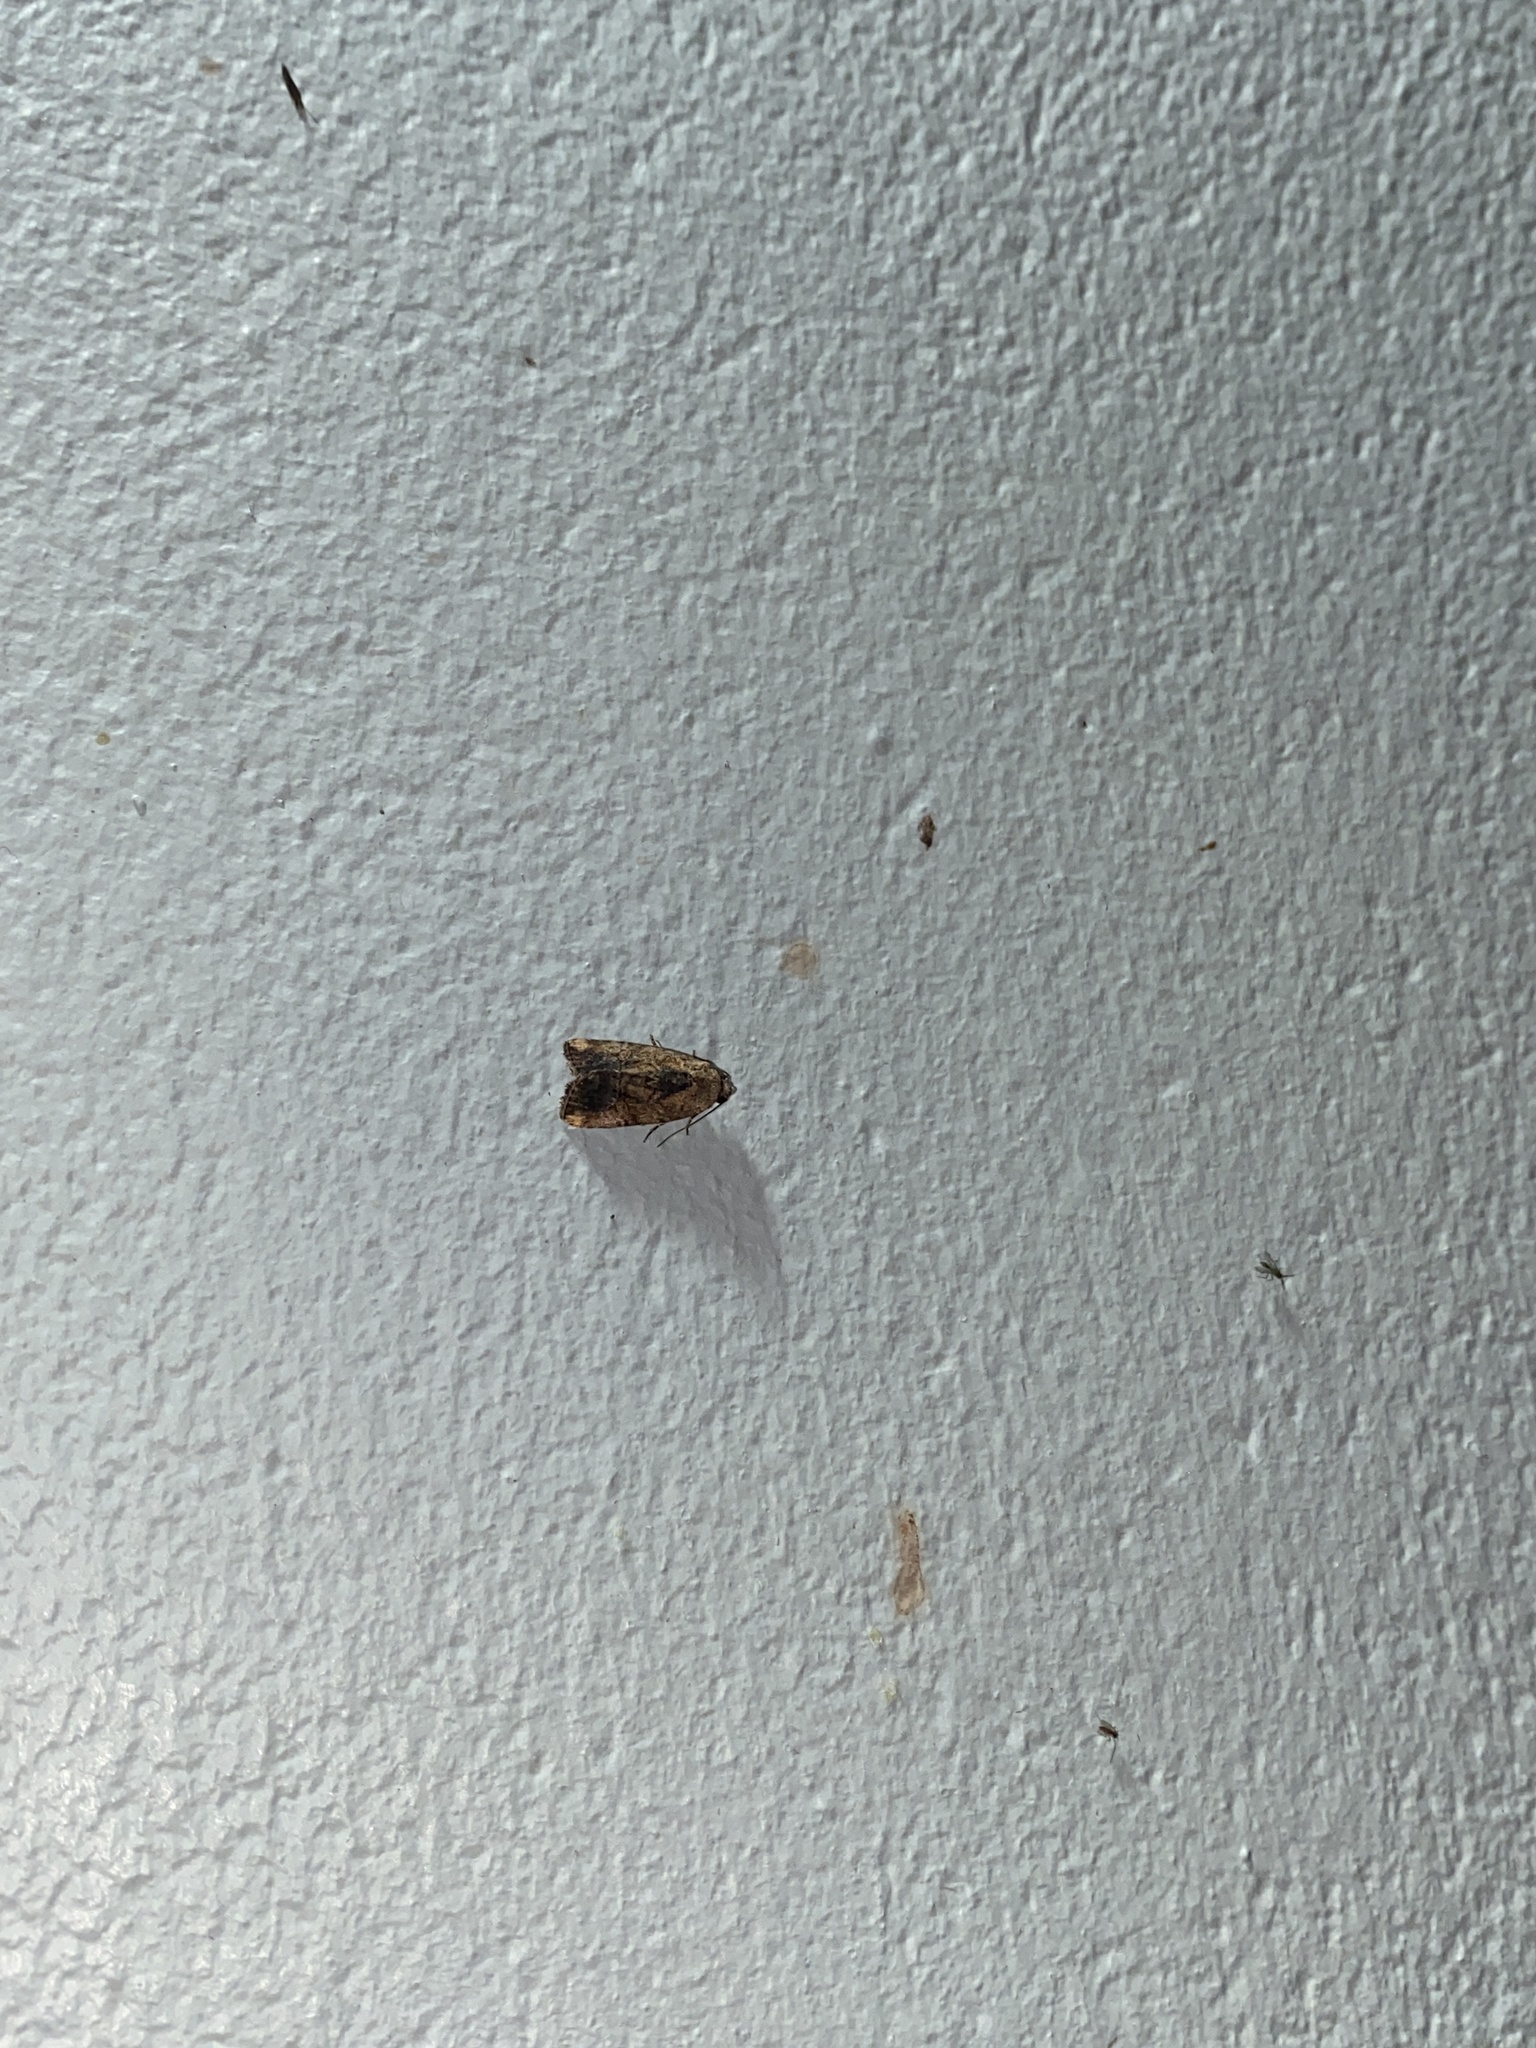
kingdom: Animalia
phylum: Arthropoda
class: Insecta
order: Lepidoptera
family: Noctuidae
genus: Elaphria
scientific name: Elaphria agrotina
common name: Agrotina midget
